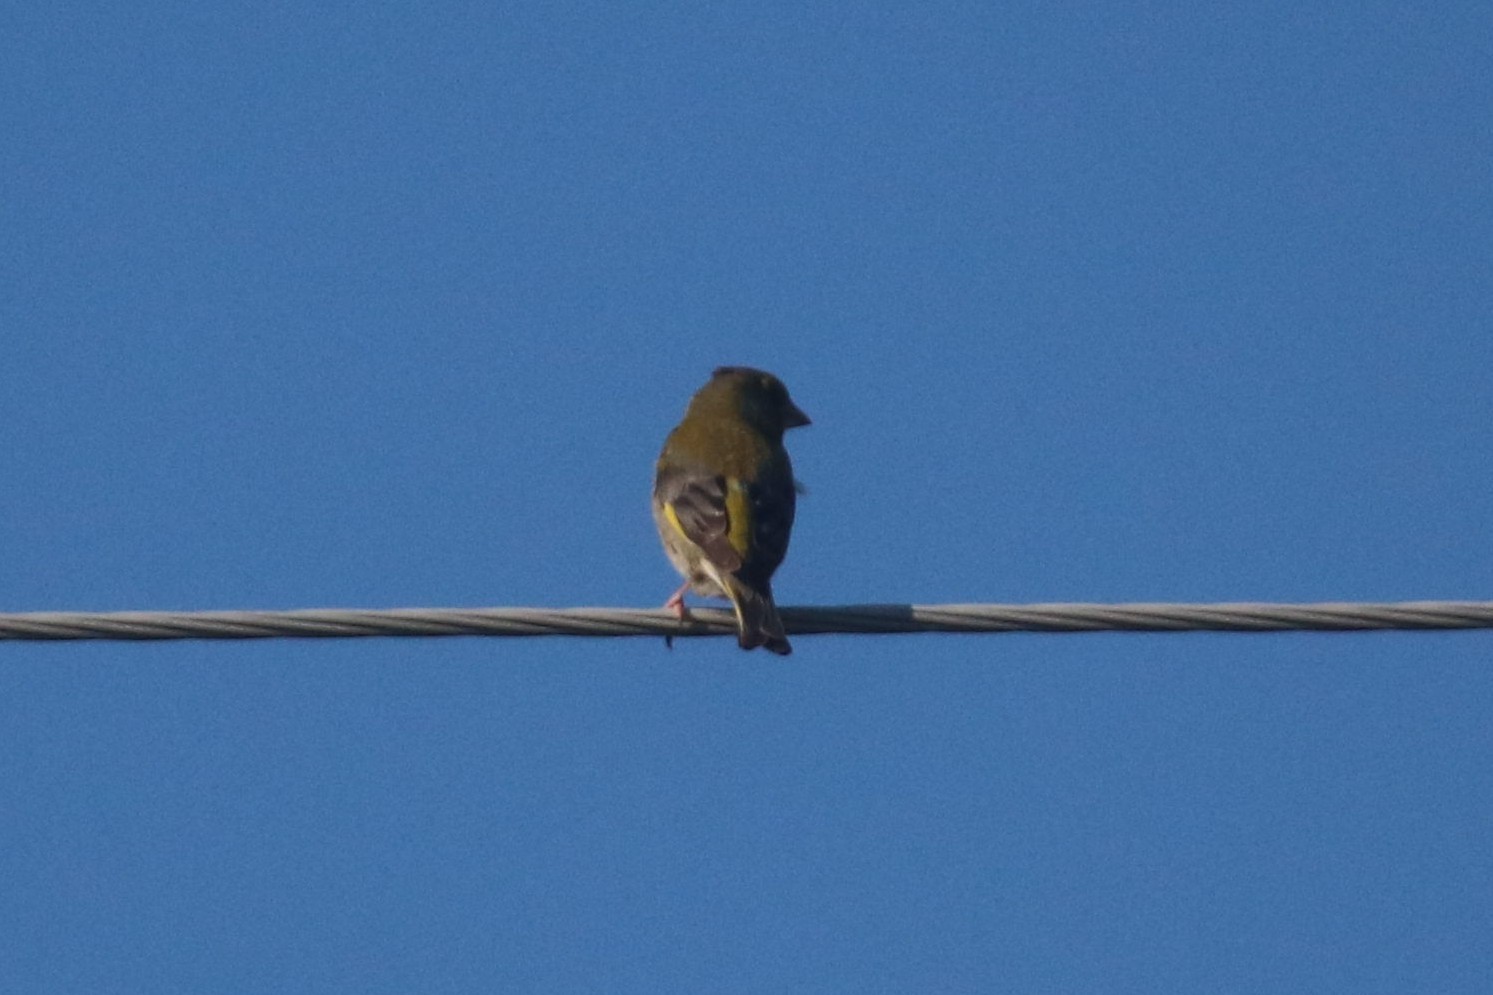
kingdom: Plantae
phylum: Tracheophyta
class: Liliopsida
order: Poales
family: Poaceae
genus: Chloris
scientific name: Chloris chloris
